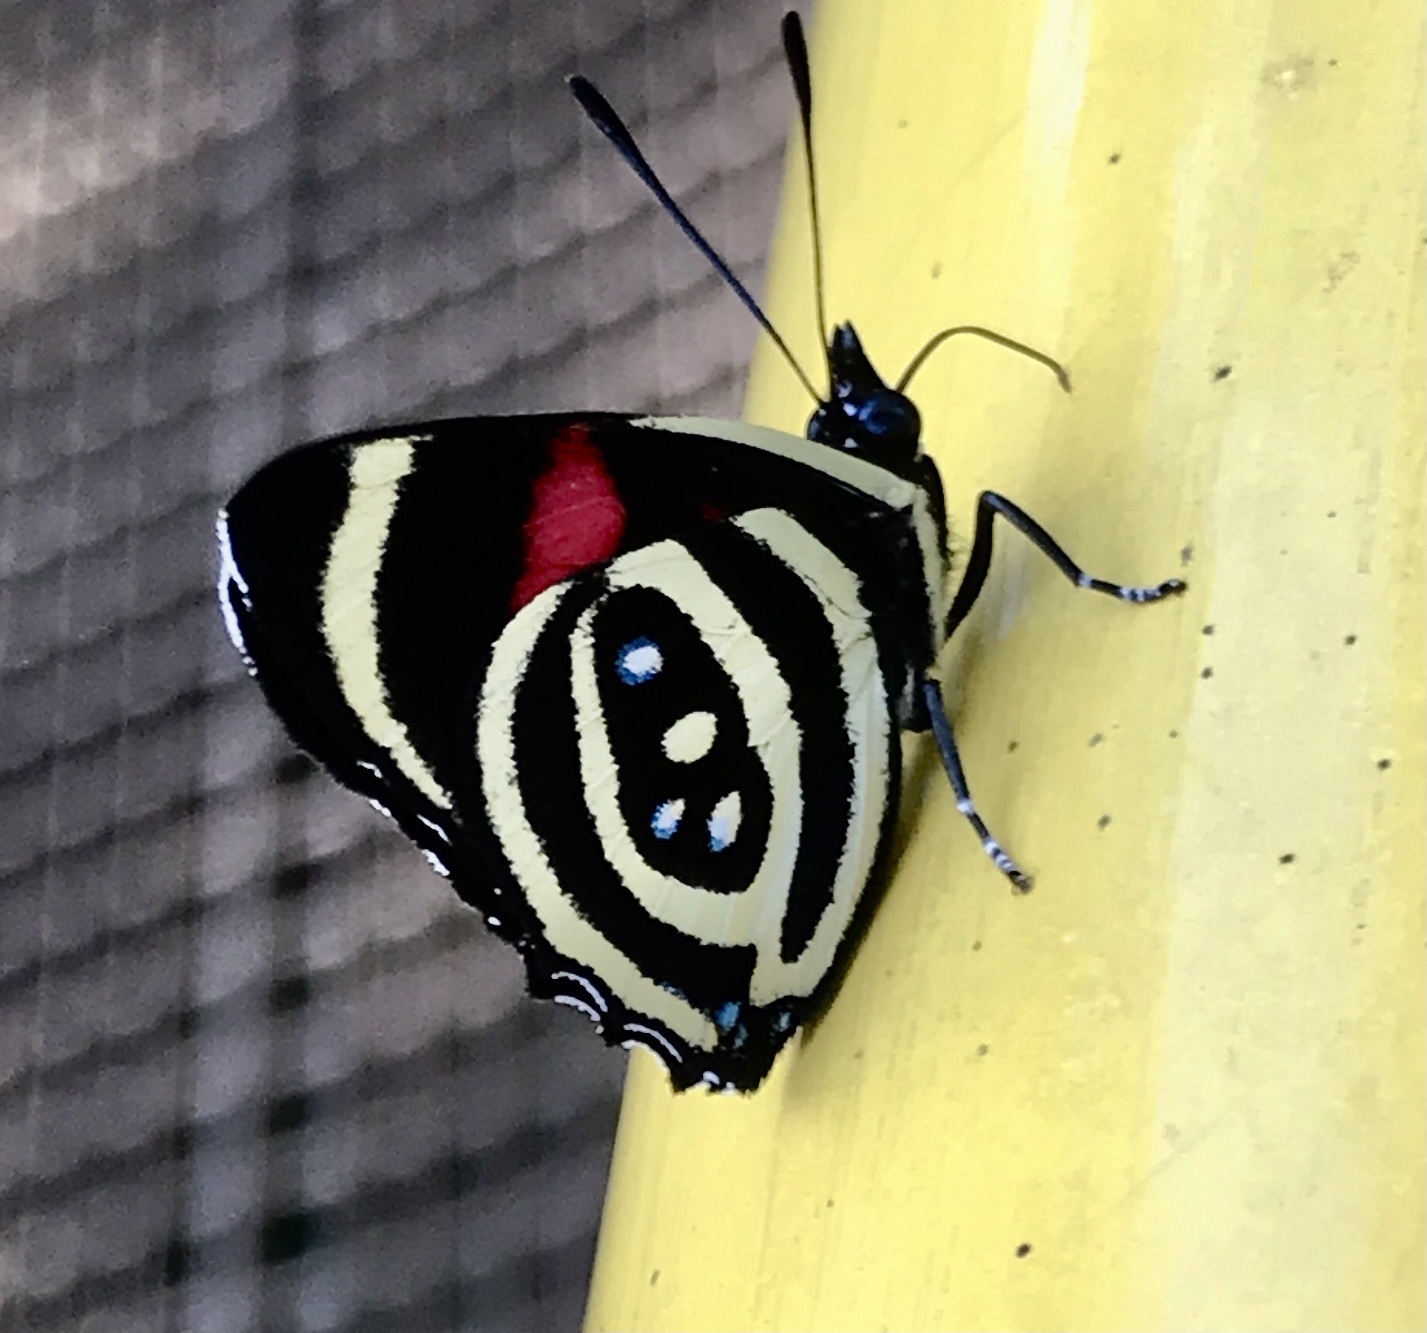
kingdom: Animalia
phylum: Arthropoda
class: Insecta
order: Lepidoptera
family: Nymphalidae
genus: Catagramma
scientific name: Catagramma Callicore hydaspes
